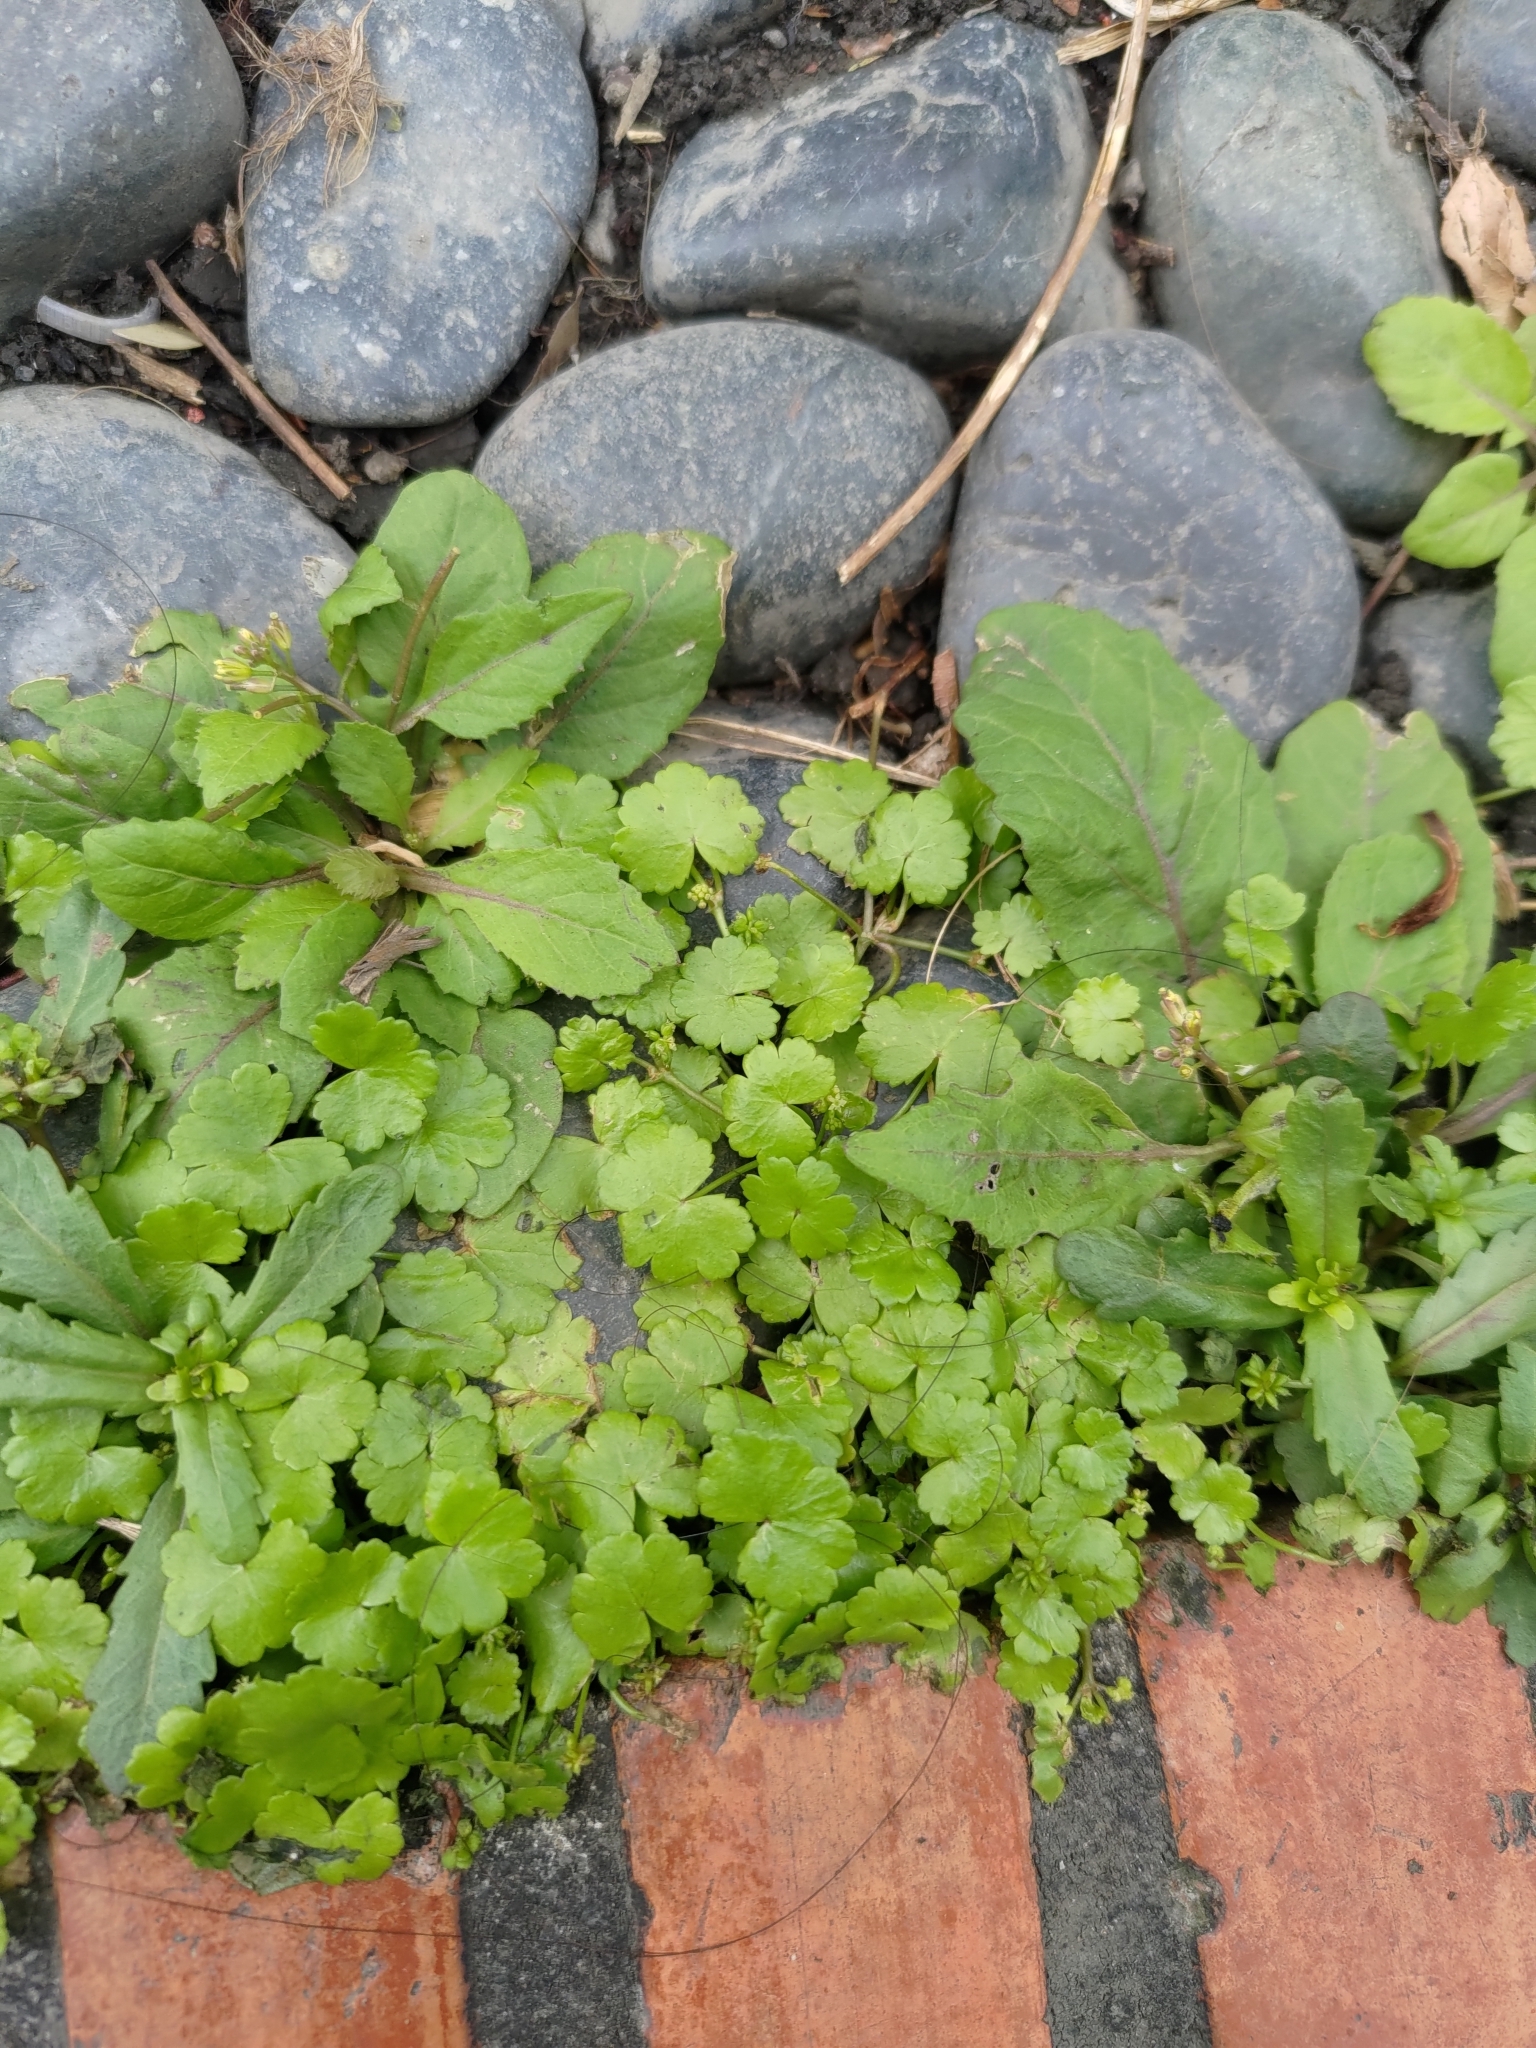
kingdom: Plantae
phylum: Tracheophyta
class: Magnoliopsida
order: Apiales
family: Araliaceae
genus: Hydrocotyle
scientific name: Hydrocotyle sibthorpioides
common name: Lawn marshpennywort
